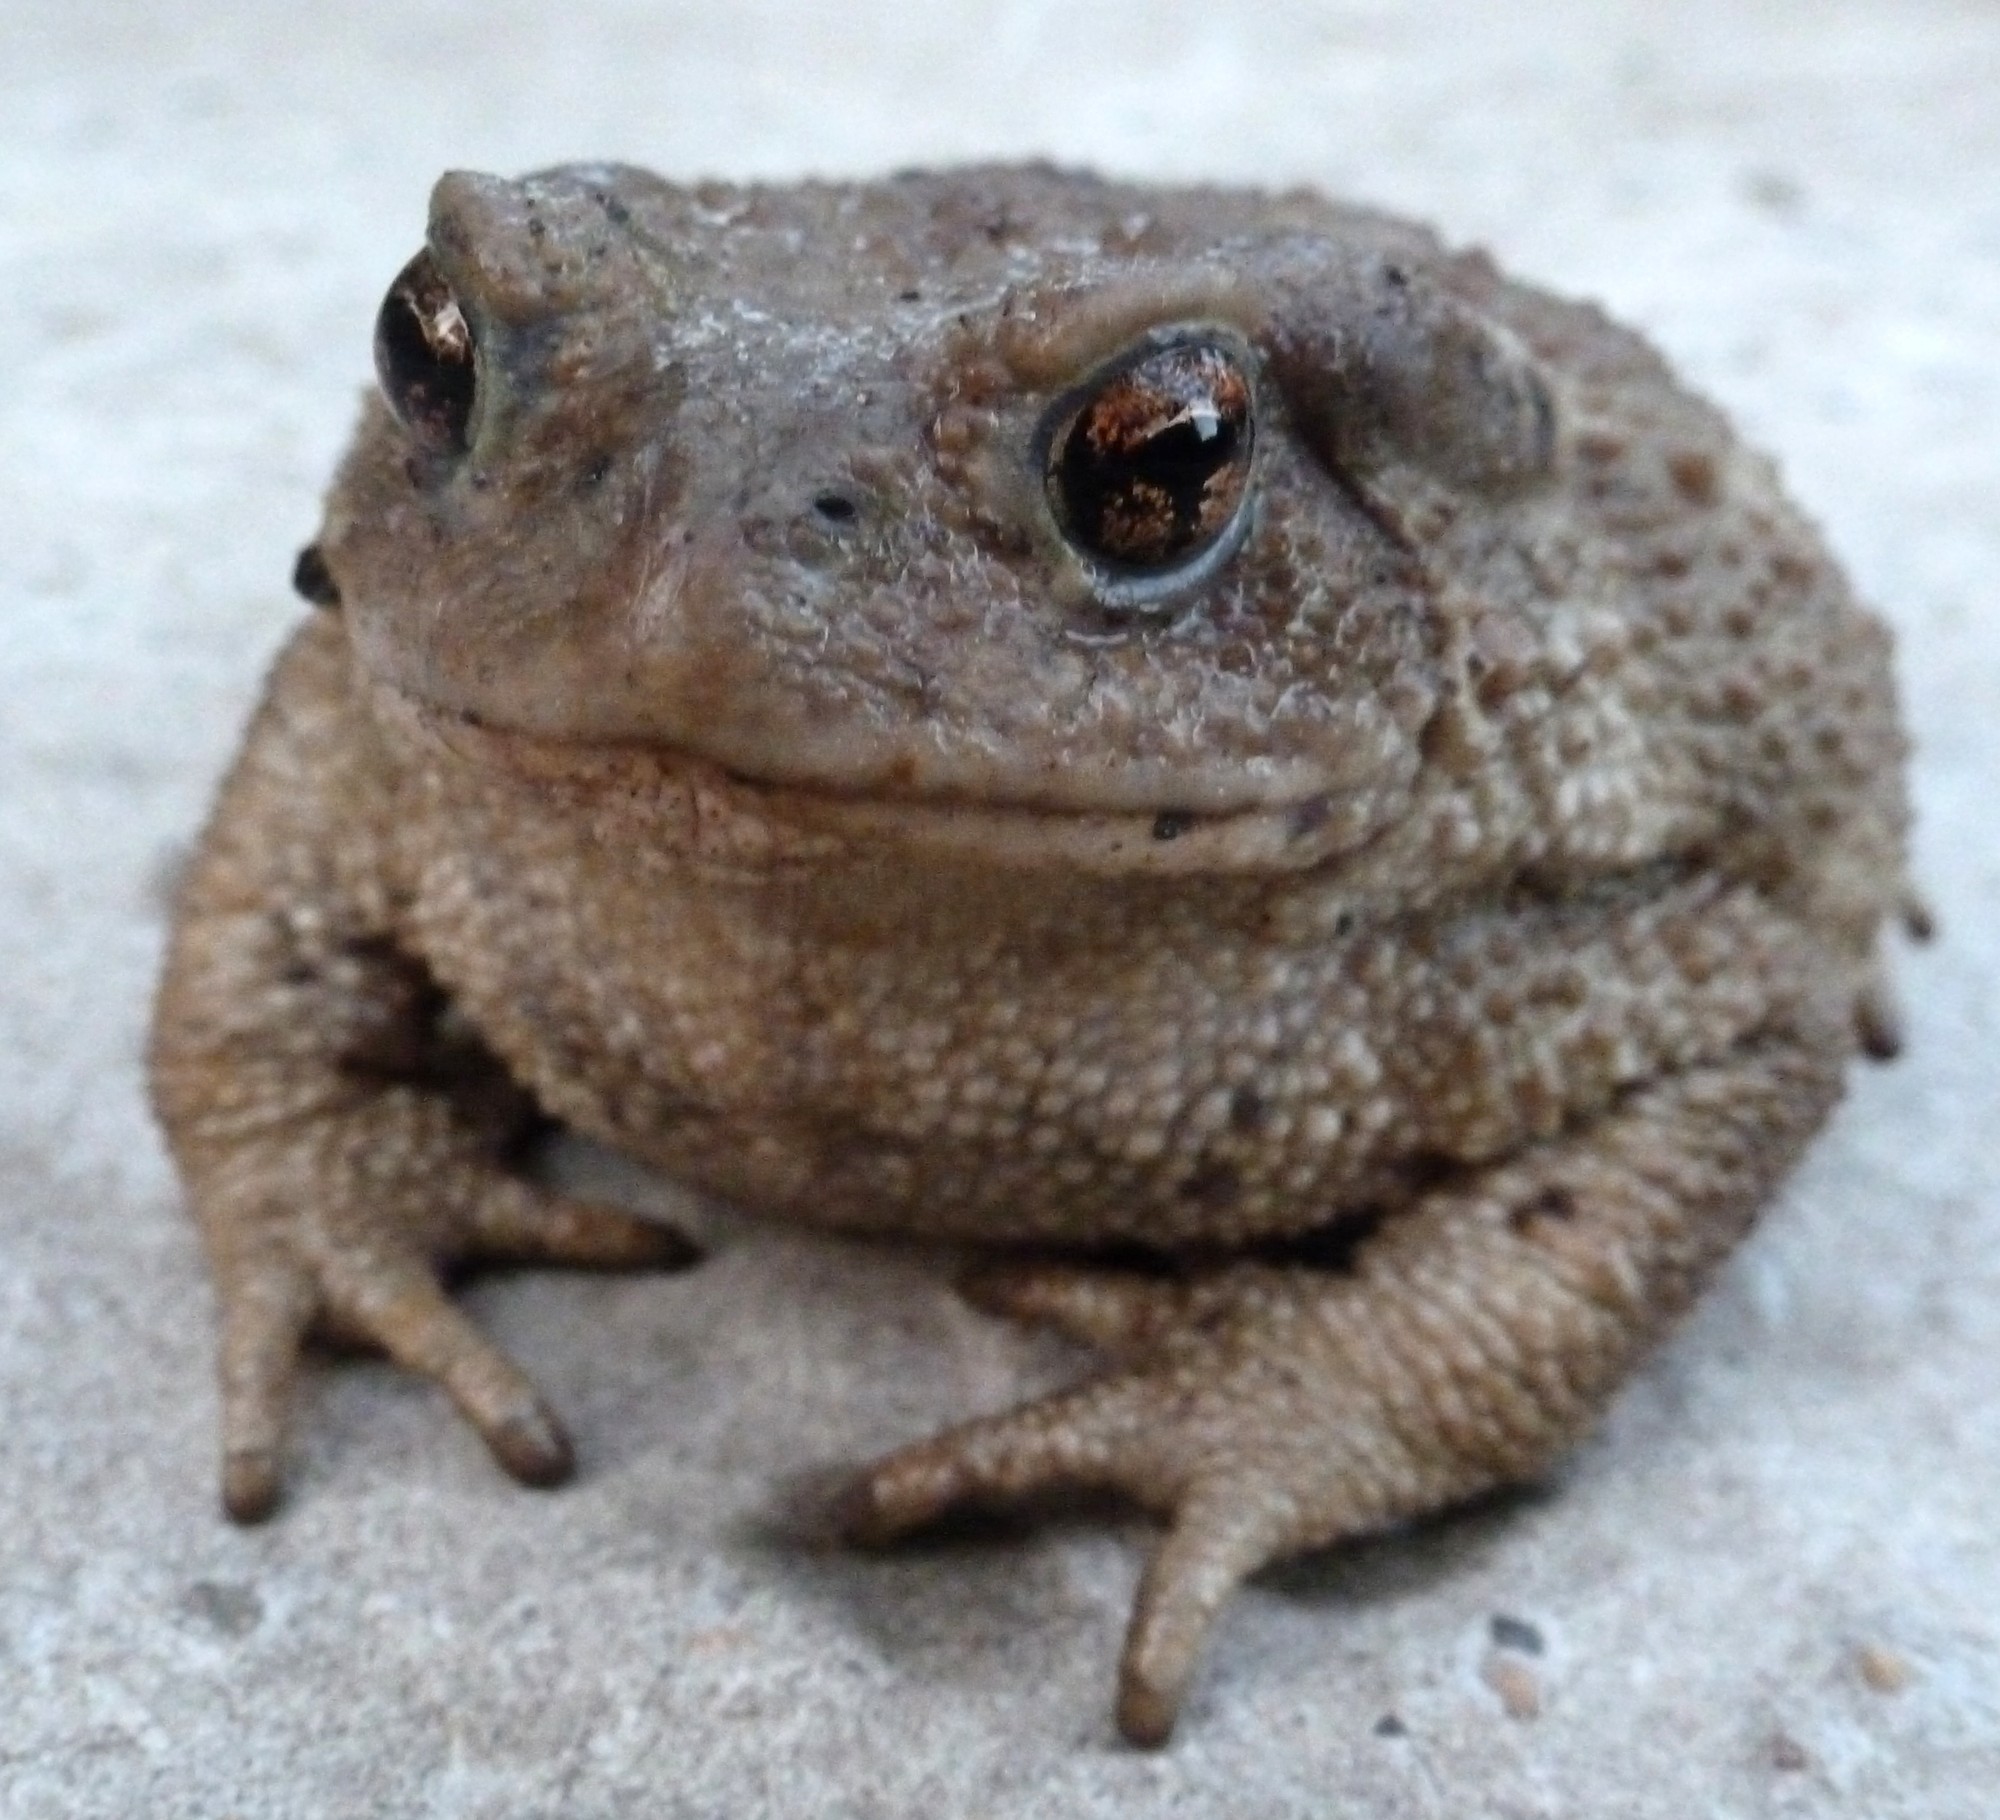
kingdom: Animalia
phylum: Chordata
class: Amphibia
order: Anura
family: Bufonidae
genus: Bufo
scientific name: Bufo verrucosissimus
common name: Caucasian toad
